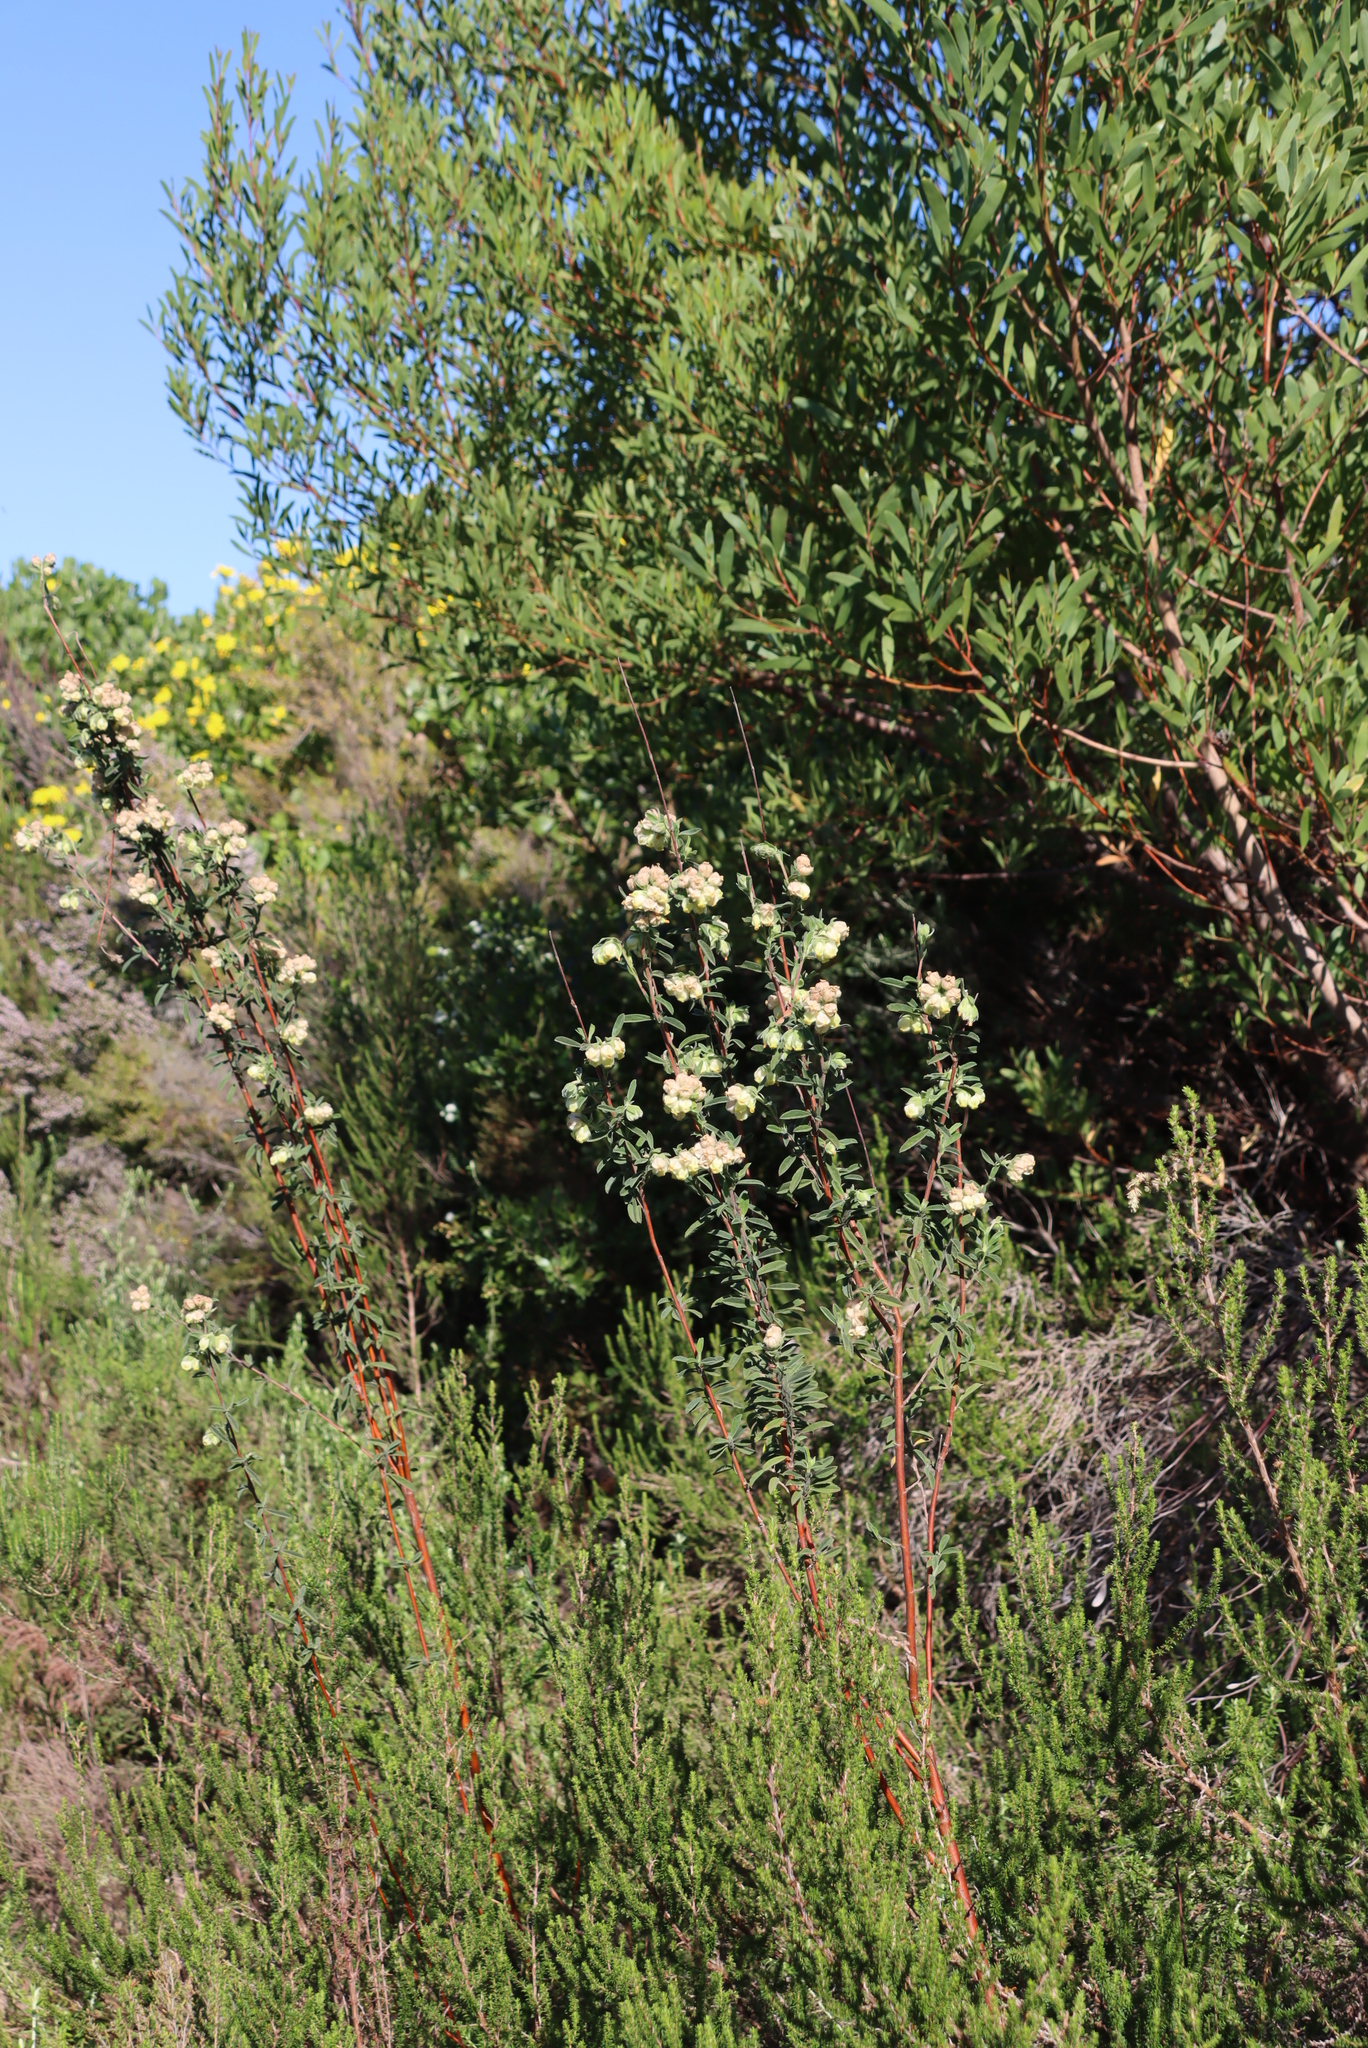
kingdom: Plantae
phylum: Tracheophyta
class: Magnoliopsida
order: Malvales
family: Malvaceae
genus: Hermannia
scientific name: Hermannia hyssopifolia
